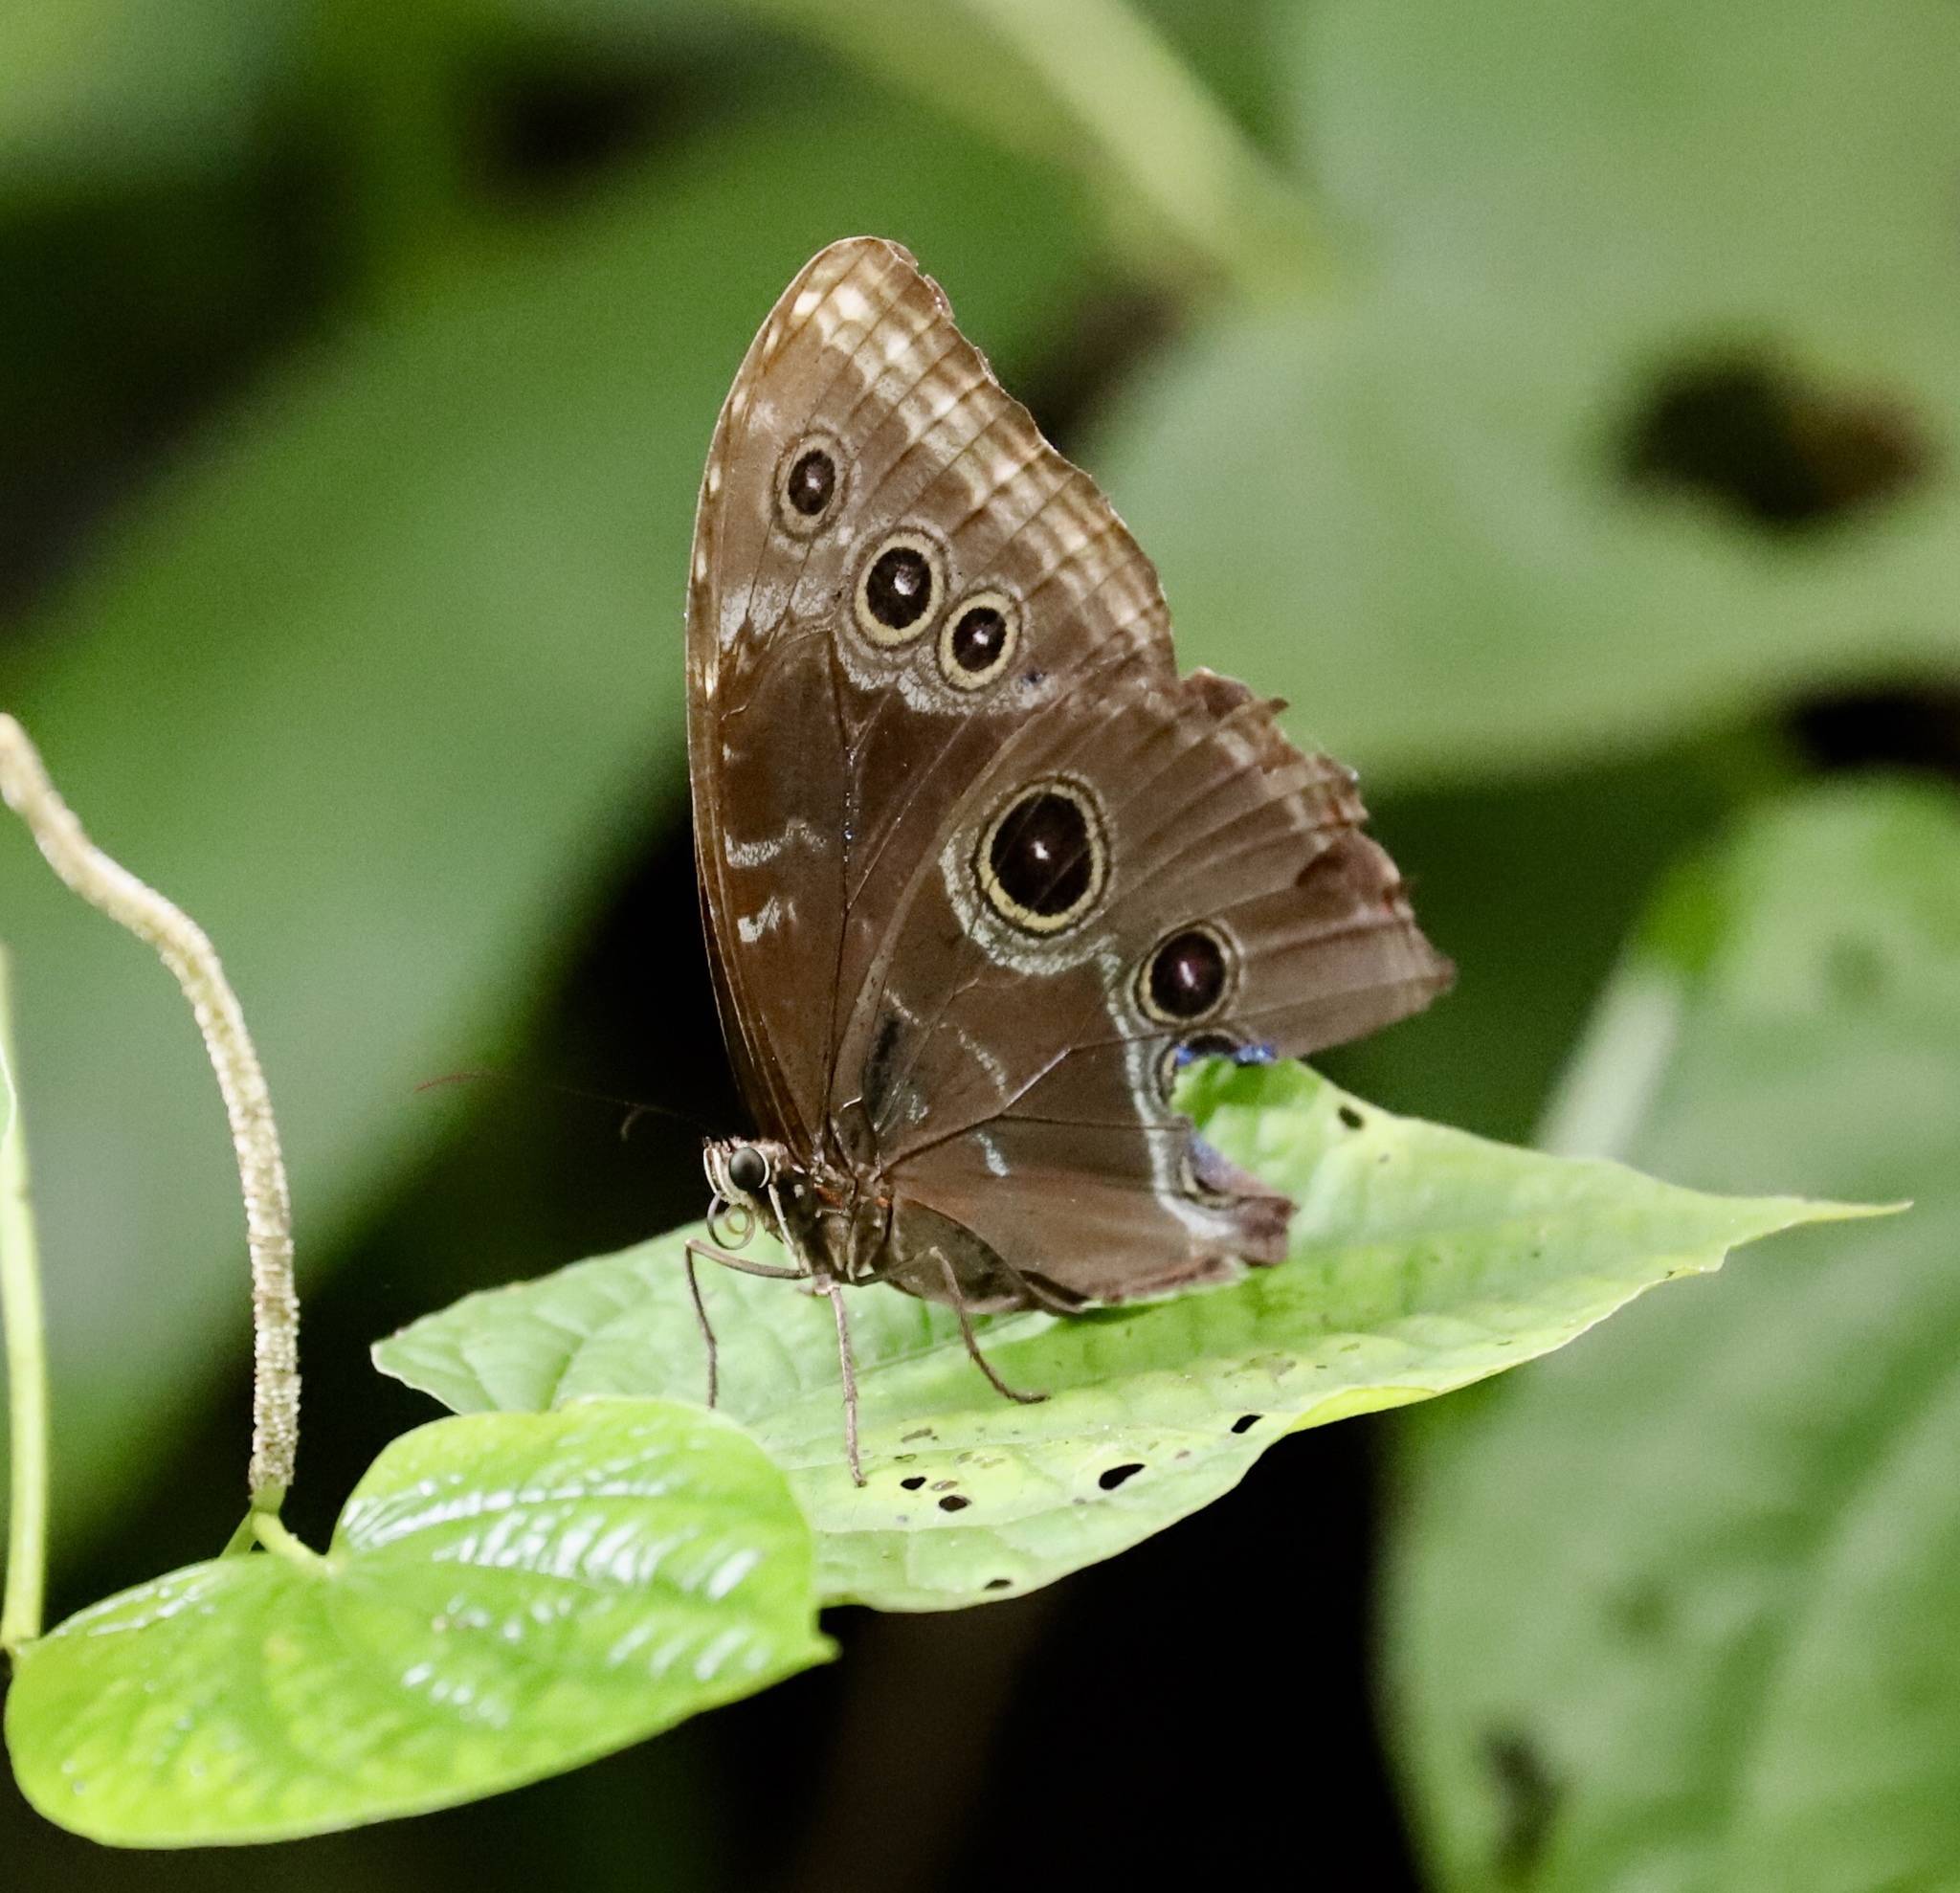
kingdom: Animalia
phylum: Arthropoda
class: Insecta
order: Lepidoptera
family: Nymphalidae
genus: Morpho
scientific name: Morpho helenor
